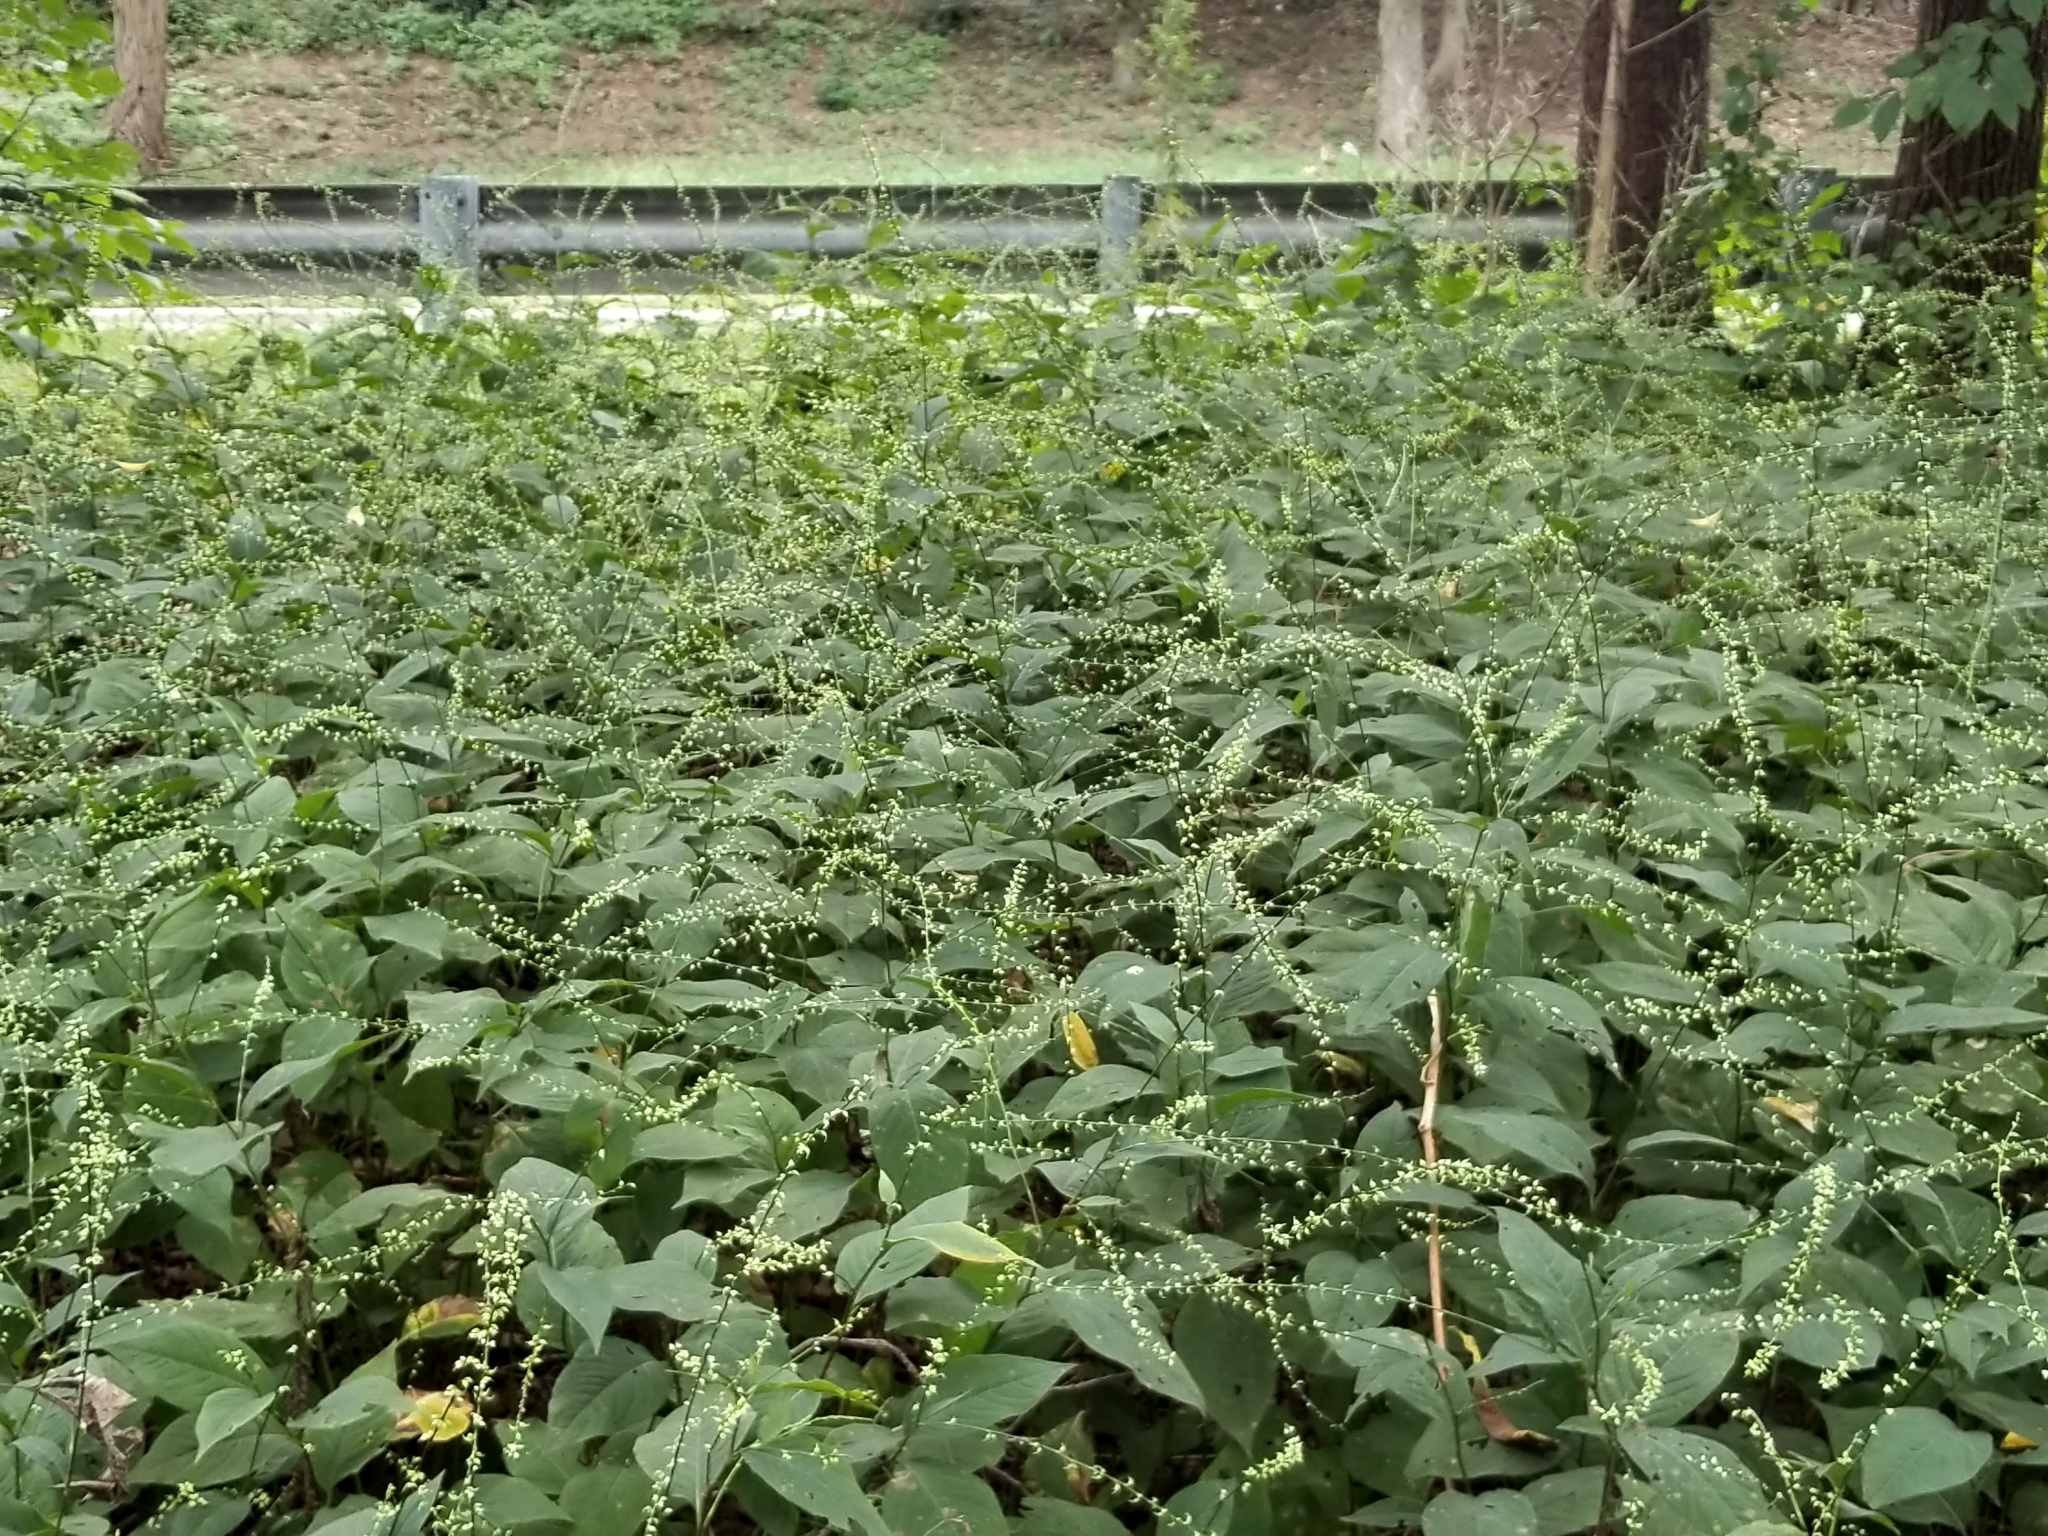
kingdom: Plantae
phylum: Tracheophyta
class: Magnoliopsida
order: Caryophyllales
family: Polygonaceae
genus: Persicaria
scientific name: Persicaria virginiana
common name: Jumpseed
